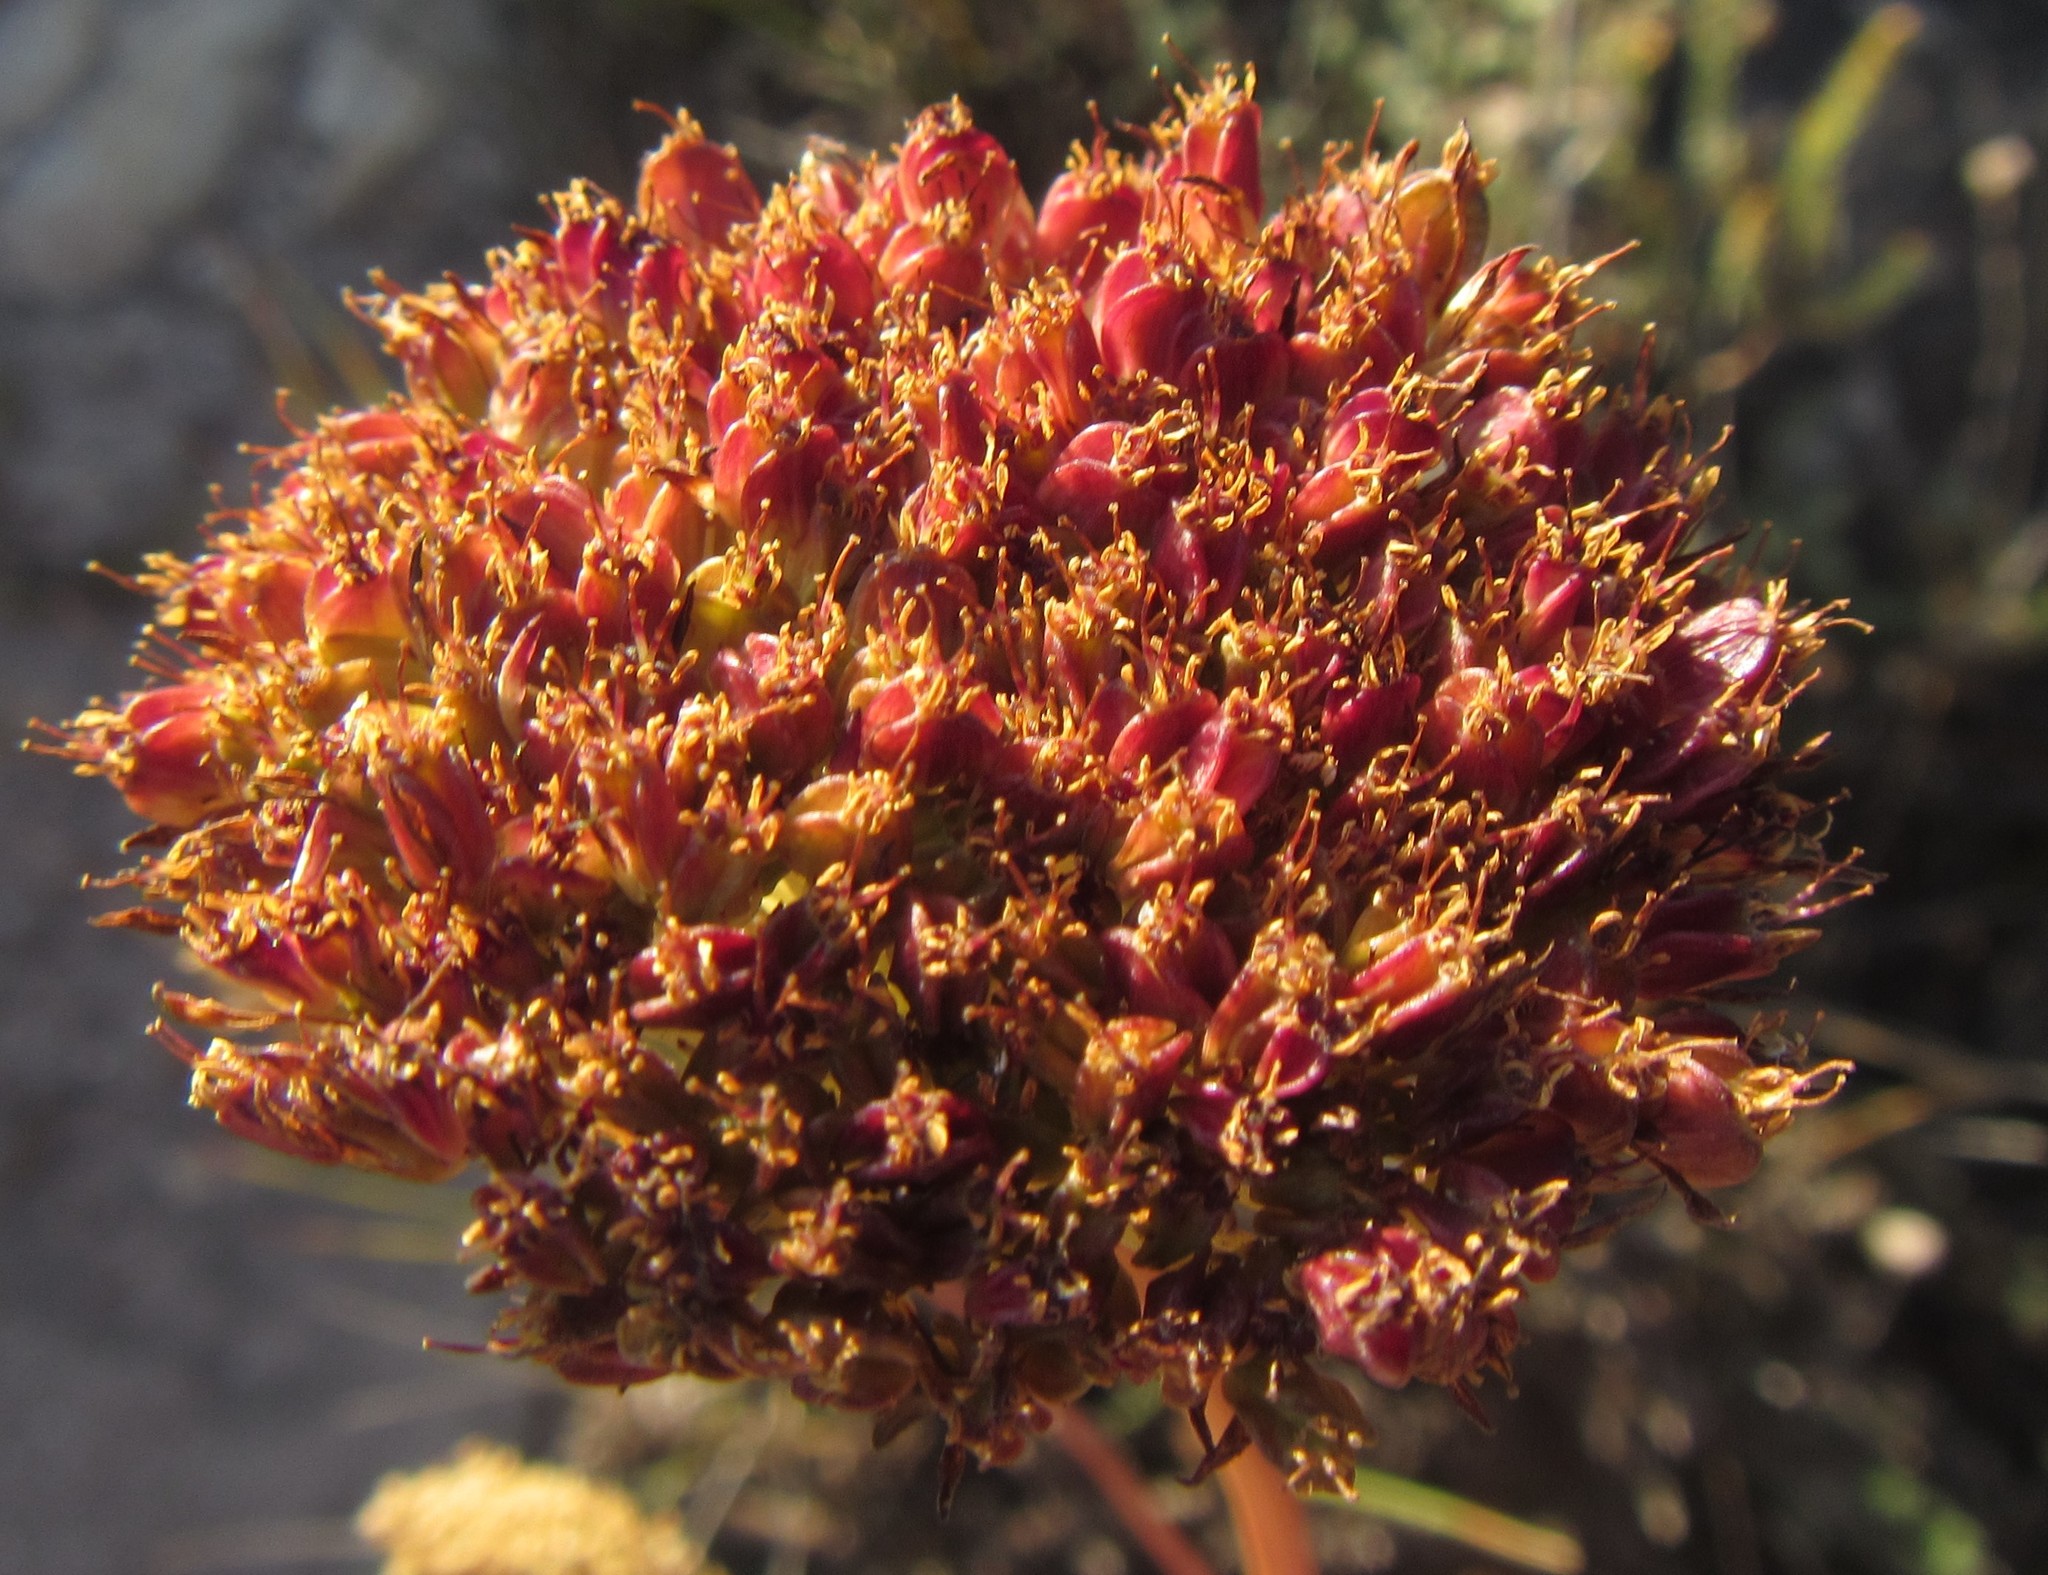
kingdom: Plantae
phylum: Tracheophyta
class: Magnoliopsida
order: Apiales
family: Apiaceae
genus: Hermas
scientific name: Hermas ciliata
